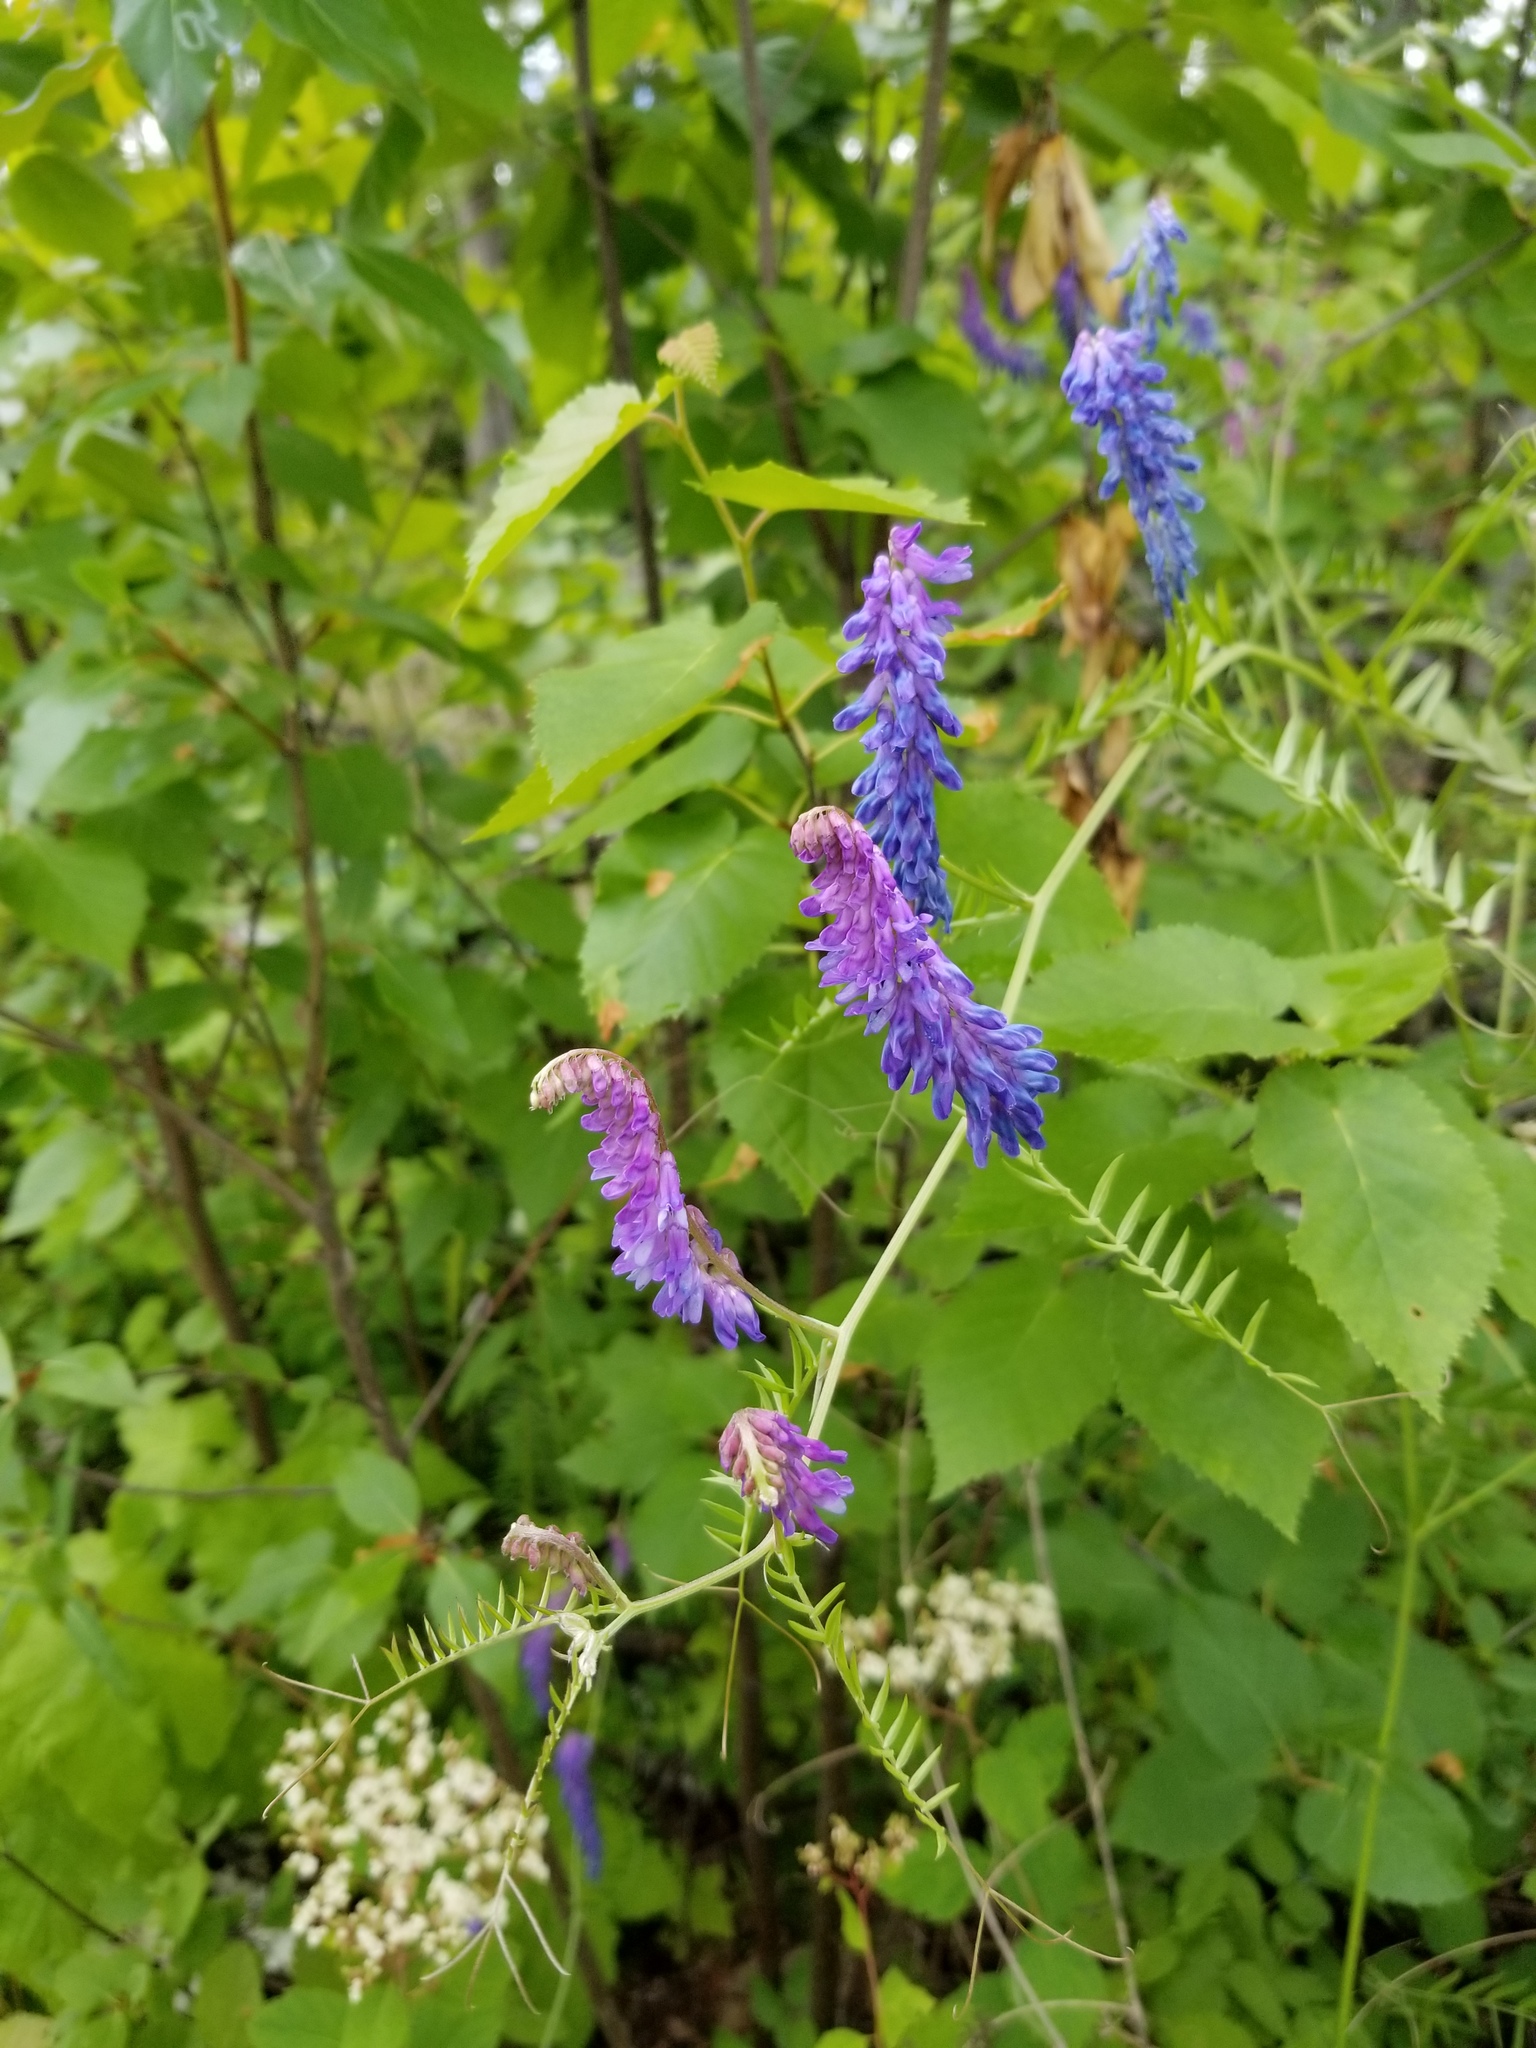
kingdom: Plantae
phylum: Tracheophyta
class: Magnoliopsida
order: Fabales
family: Fabaceae
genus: Vicia
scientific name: Vicia cracca
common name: Bird vetch
